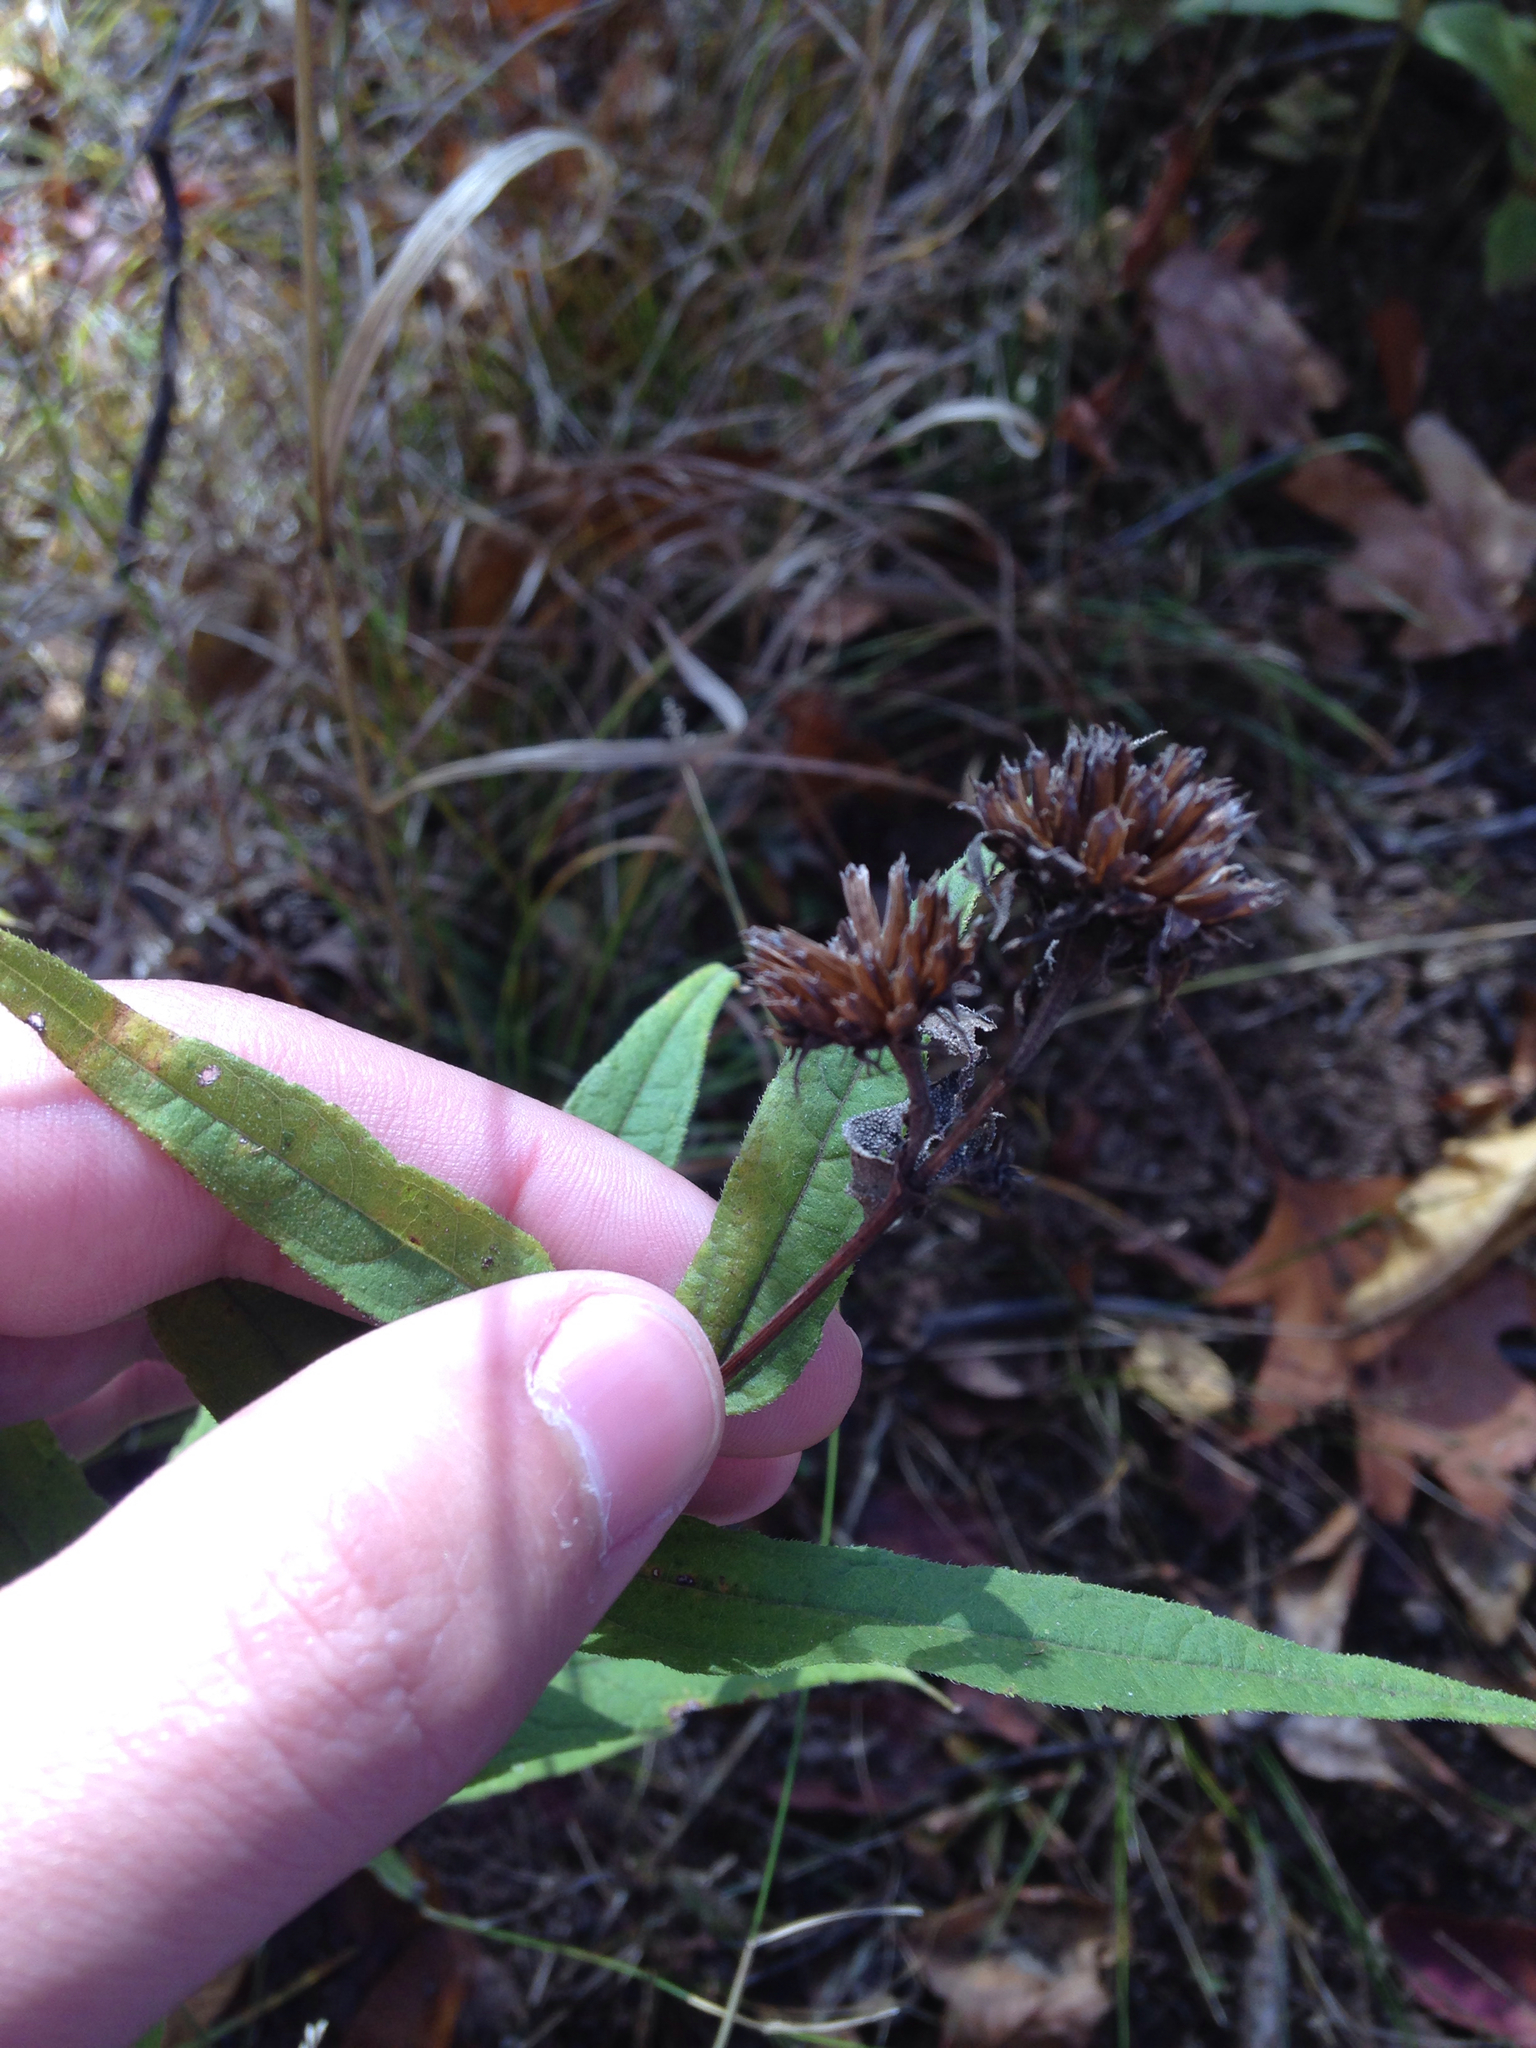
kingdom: Plantae
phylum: Tracheophyta
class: Magnoliopsida
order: Asterales
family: Asteraceae
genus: Helianthus
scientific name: Helianthus divaricatus
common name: Divergent sunflower
